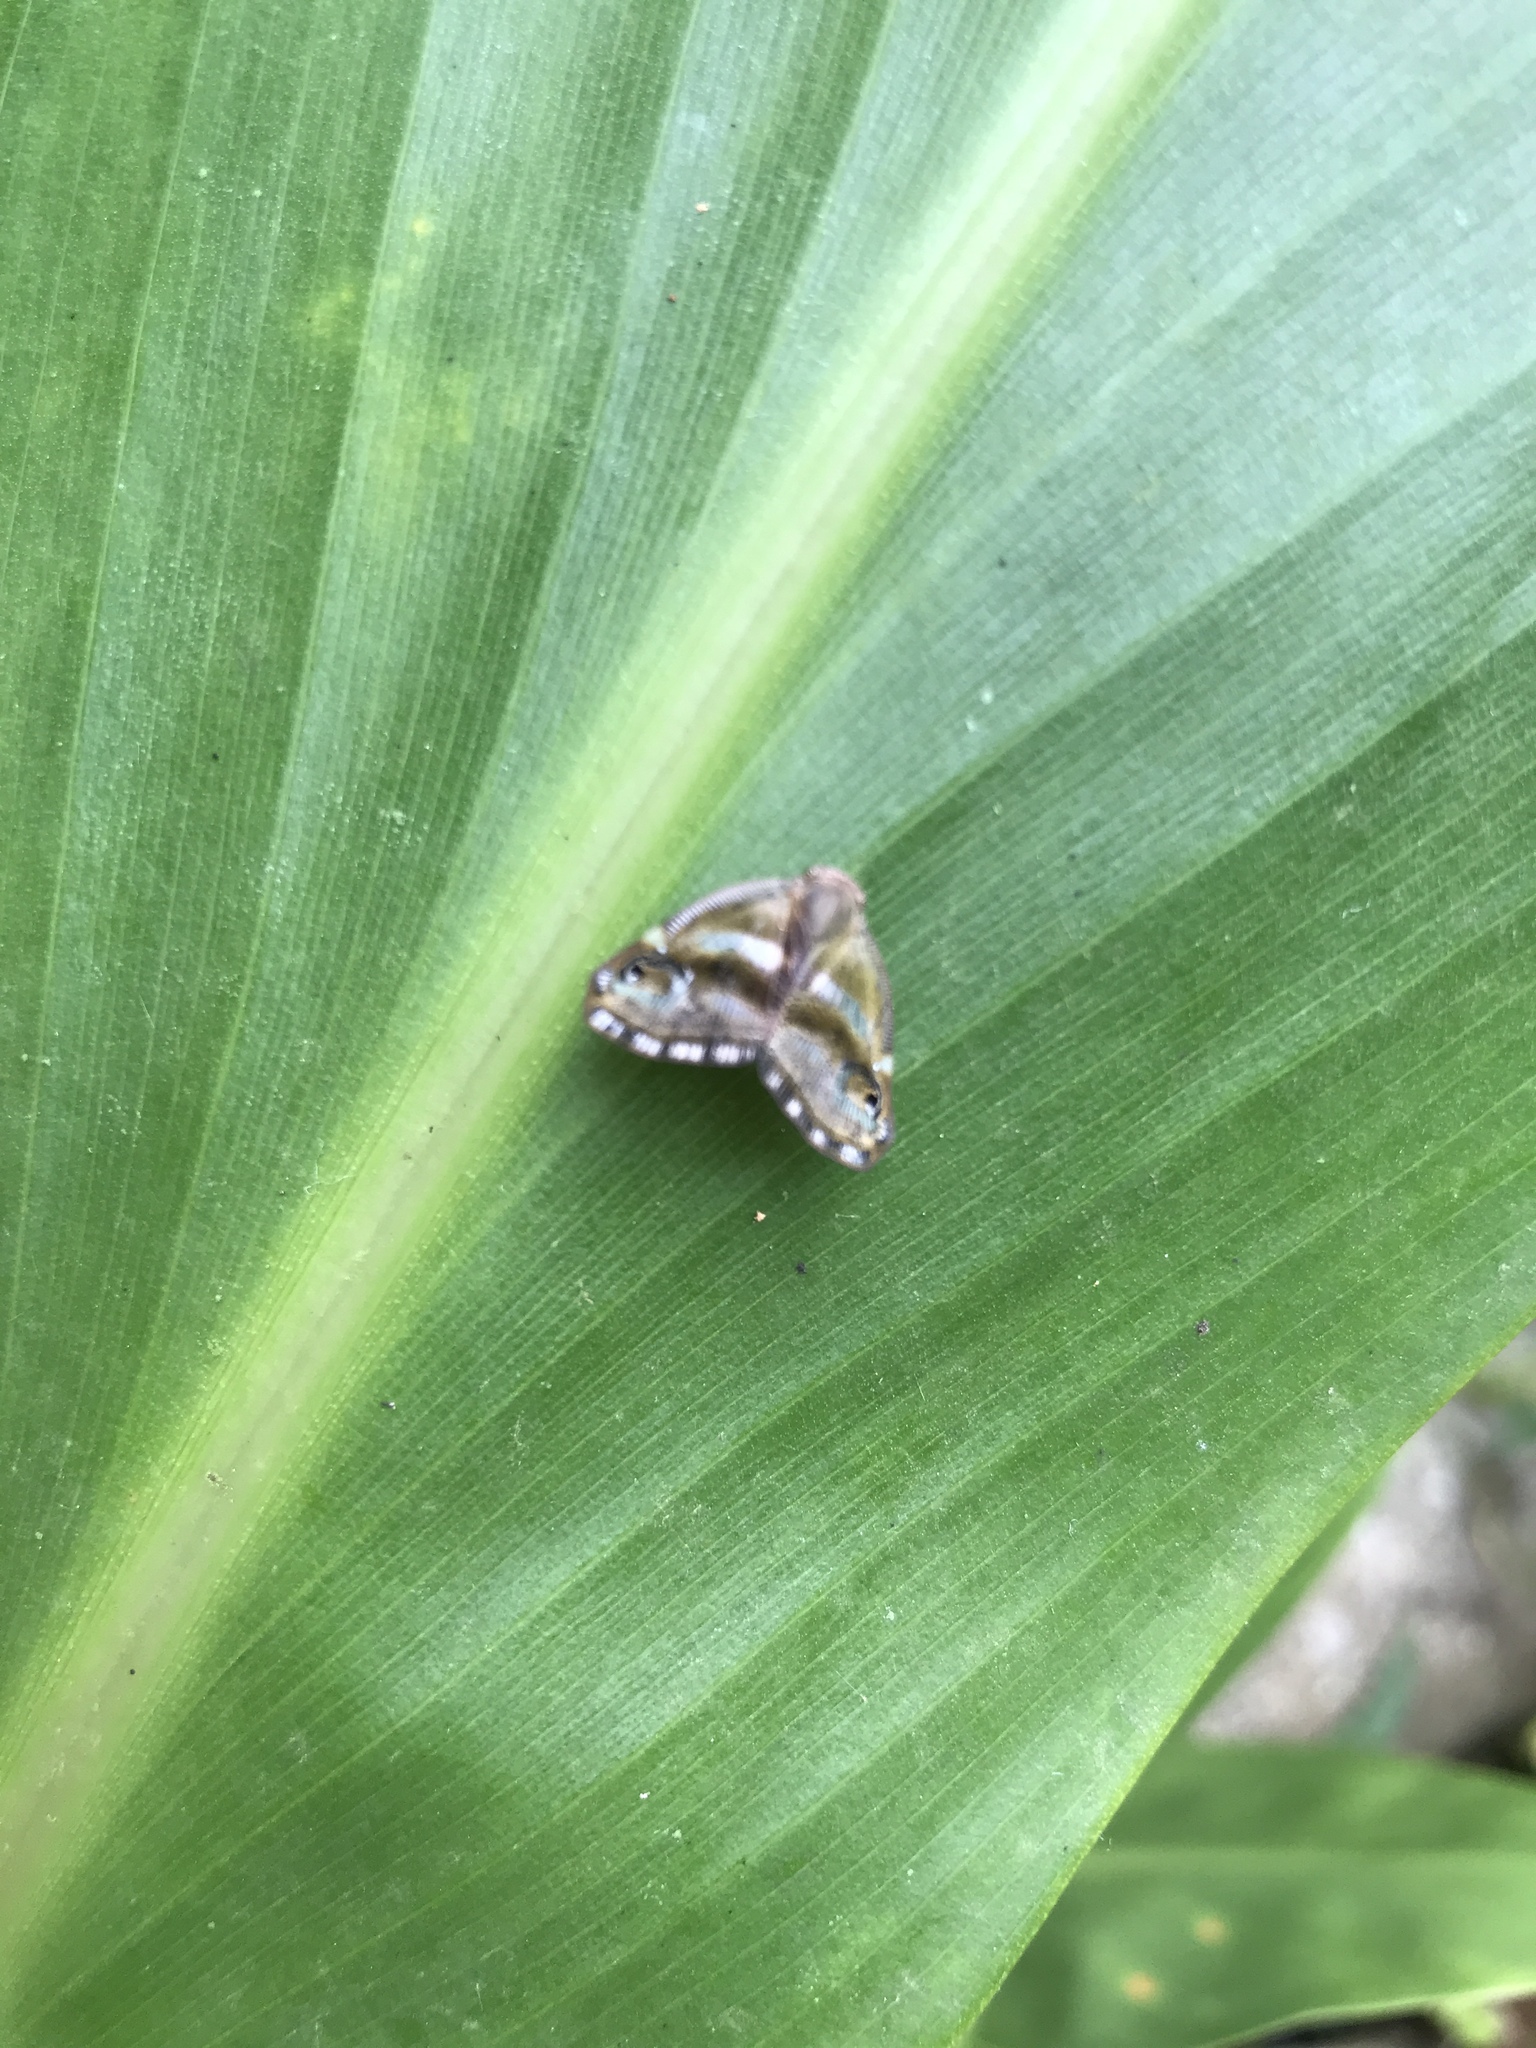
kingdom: Animalia
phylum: Arthropoda
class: Insecta
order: Hemiptera
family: Ricaniidae
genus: Ricania
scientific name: Ricania simulans
